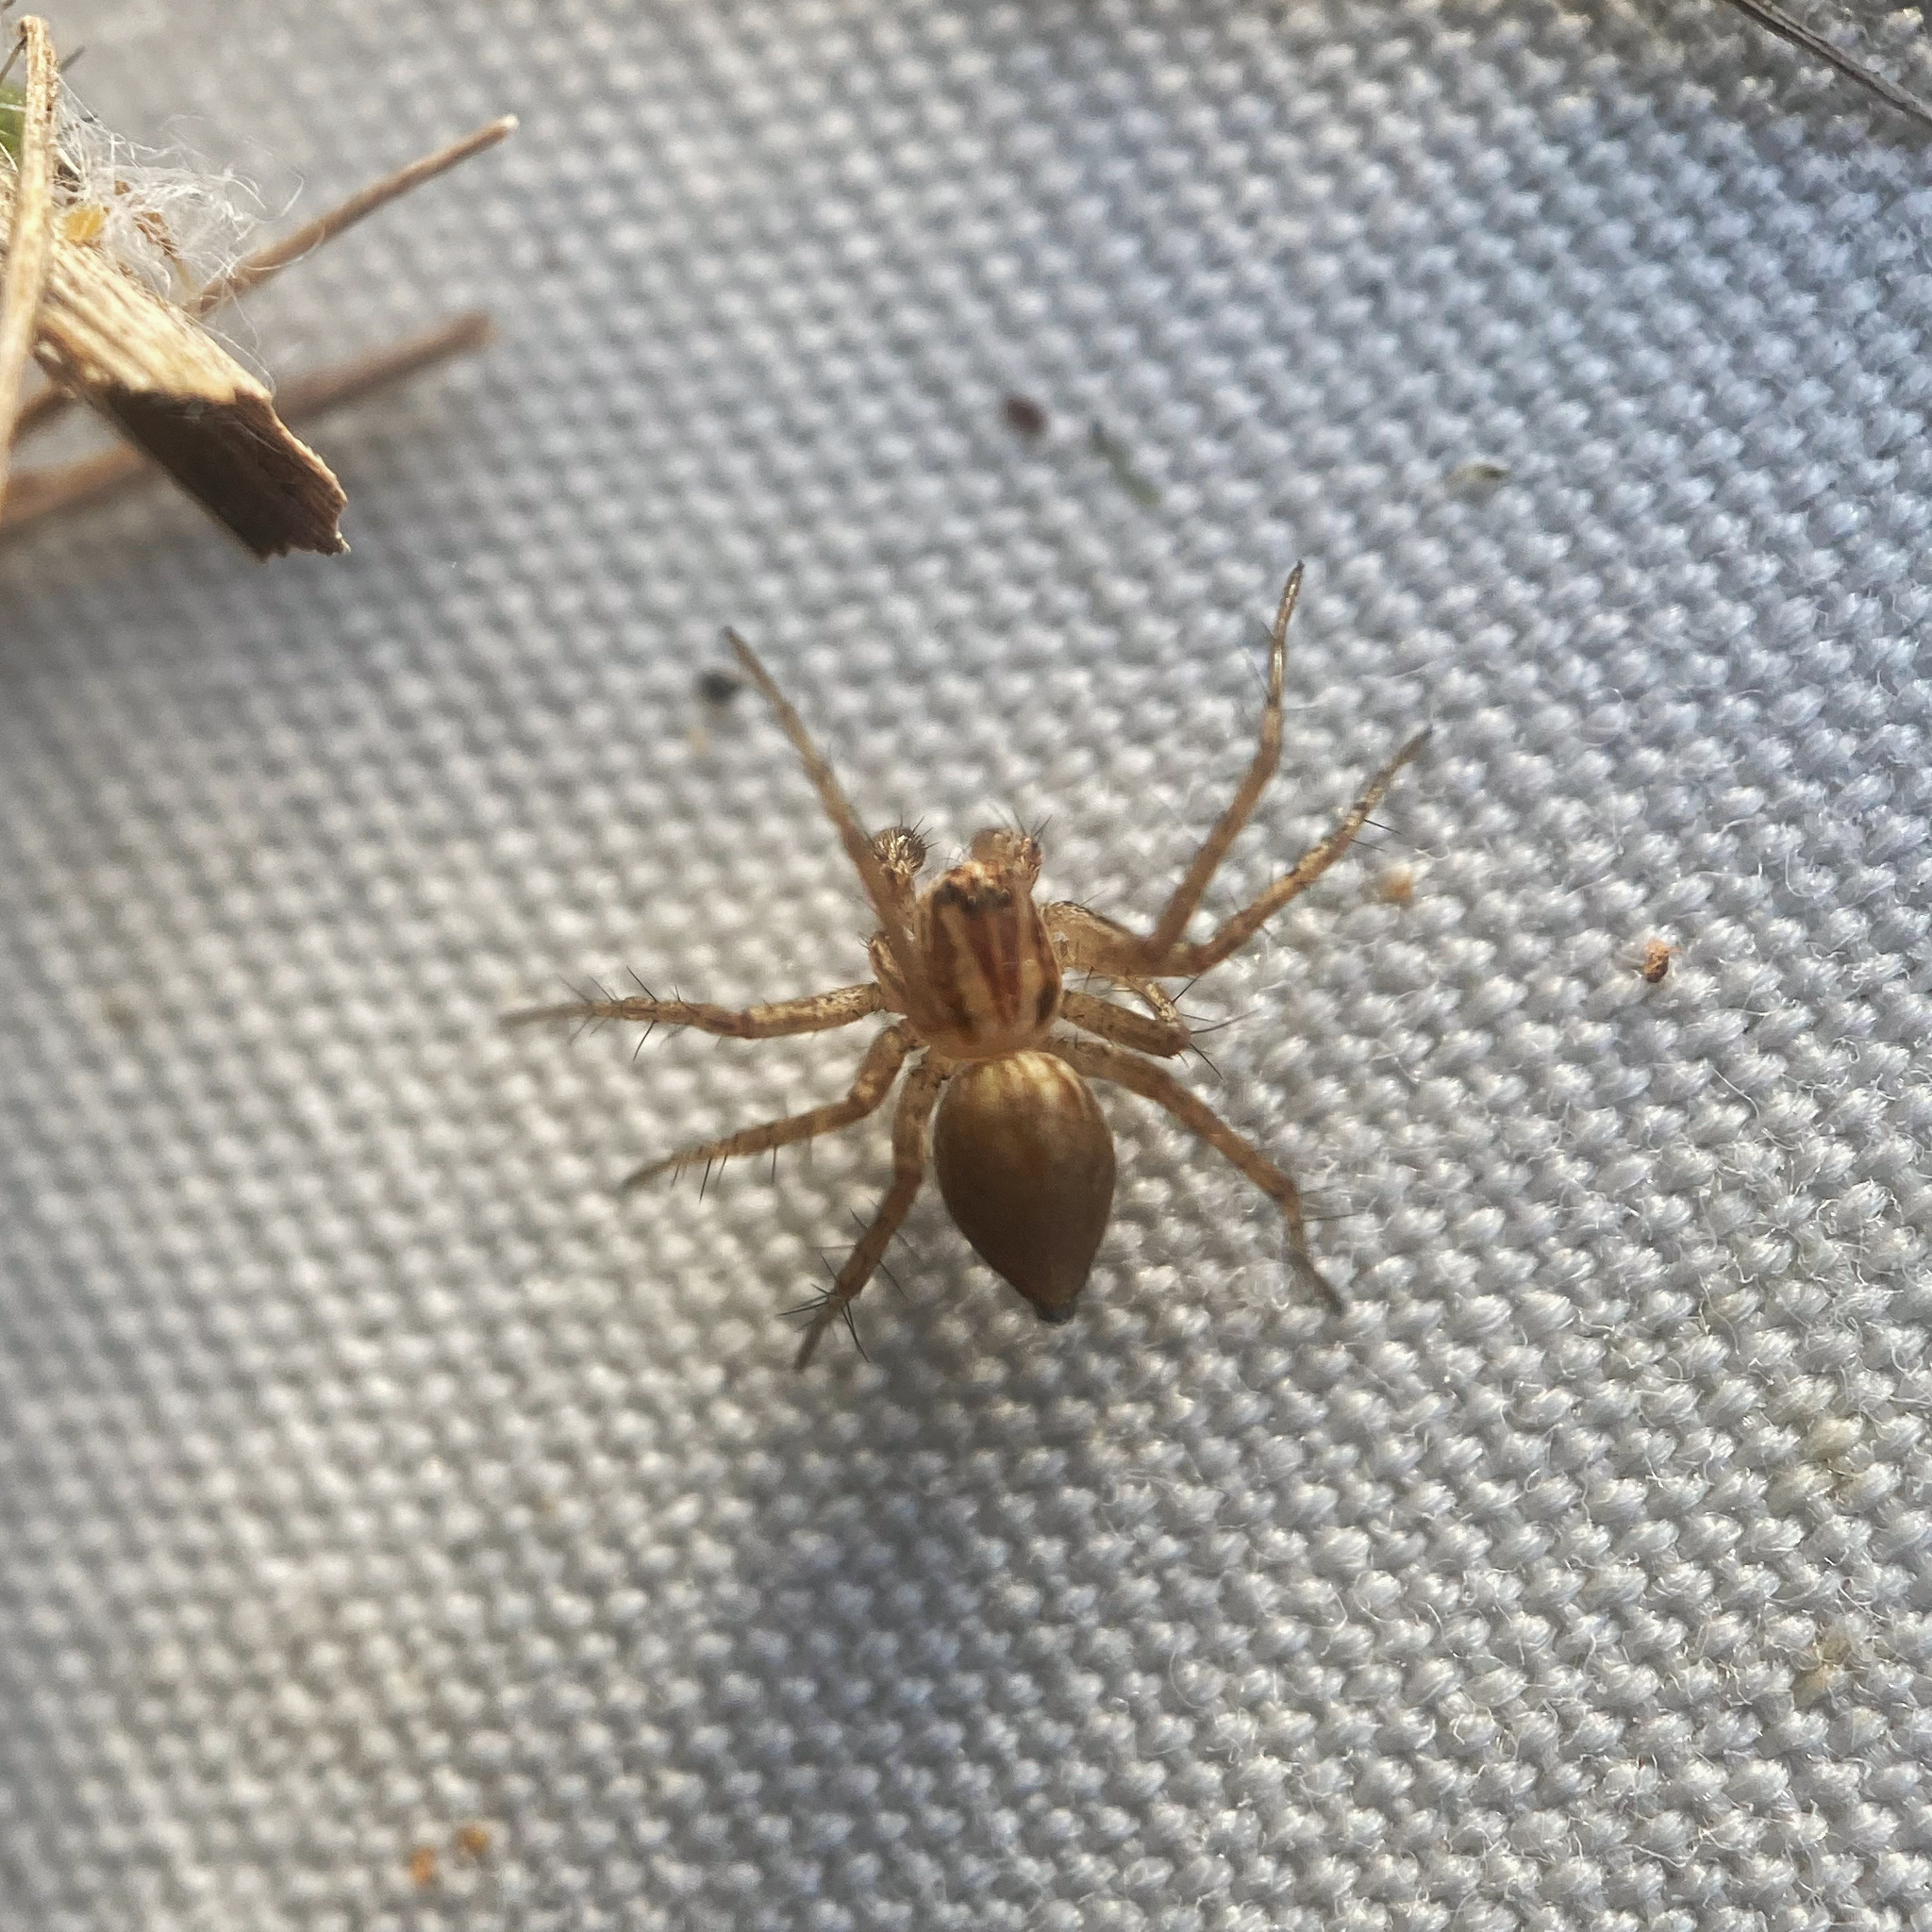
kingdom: Animalia
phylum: Arthropoda
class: Arachnida
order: Araneae
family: Oxyopidae
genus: Oxyopes
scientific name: Oxyopes gracilipes
